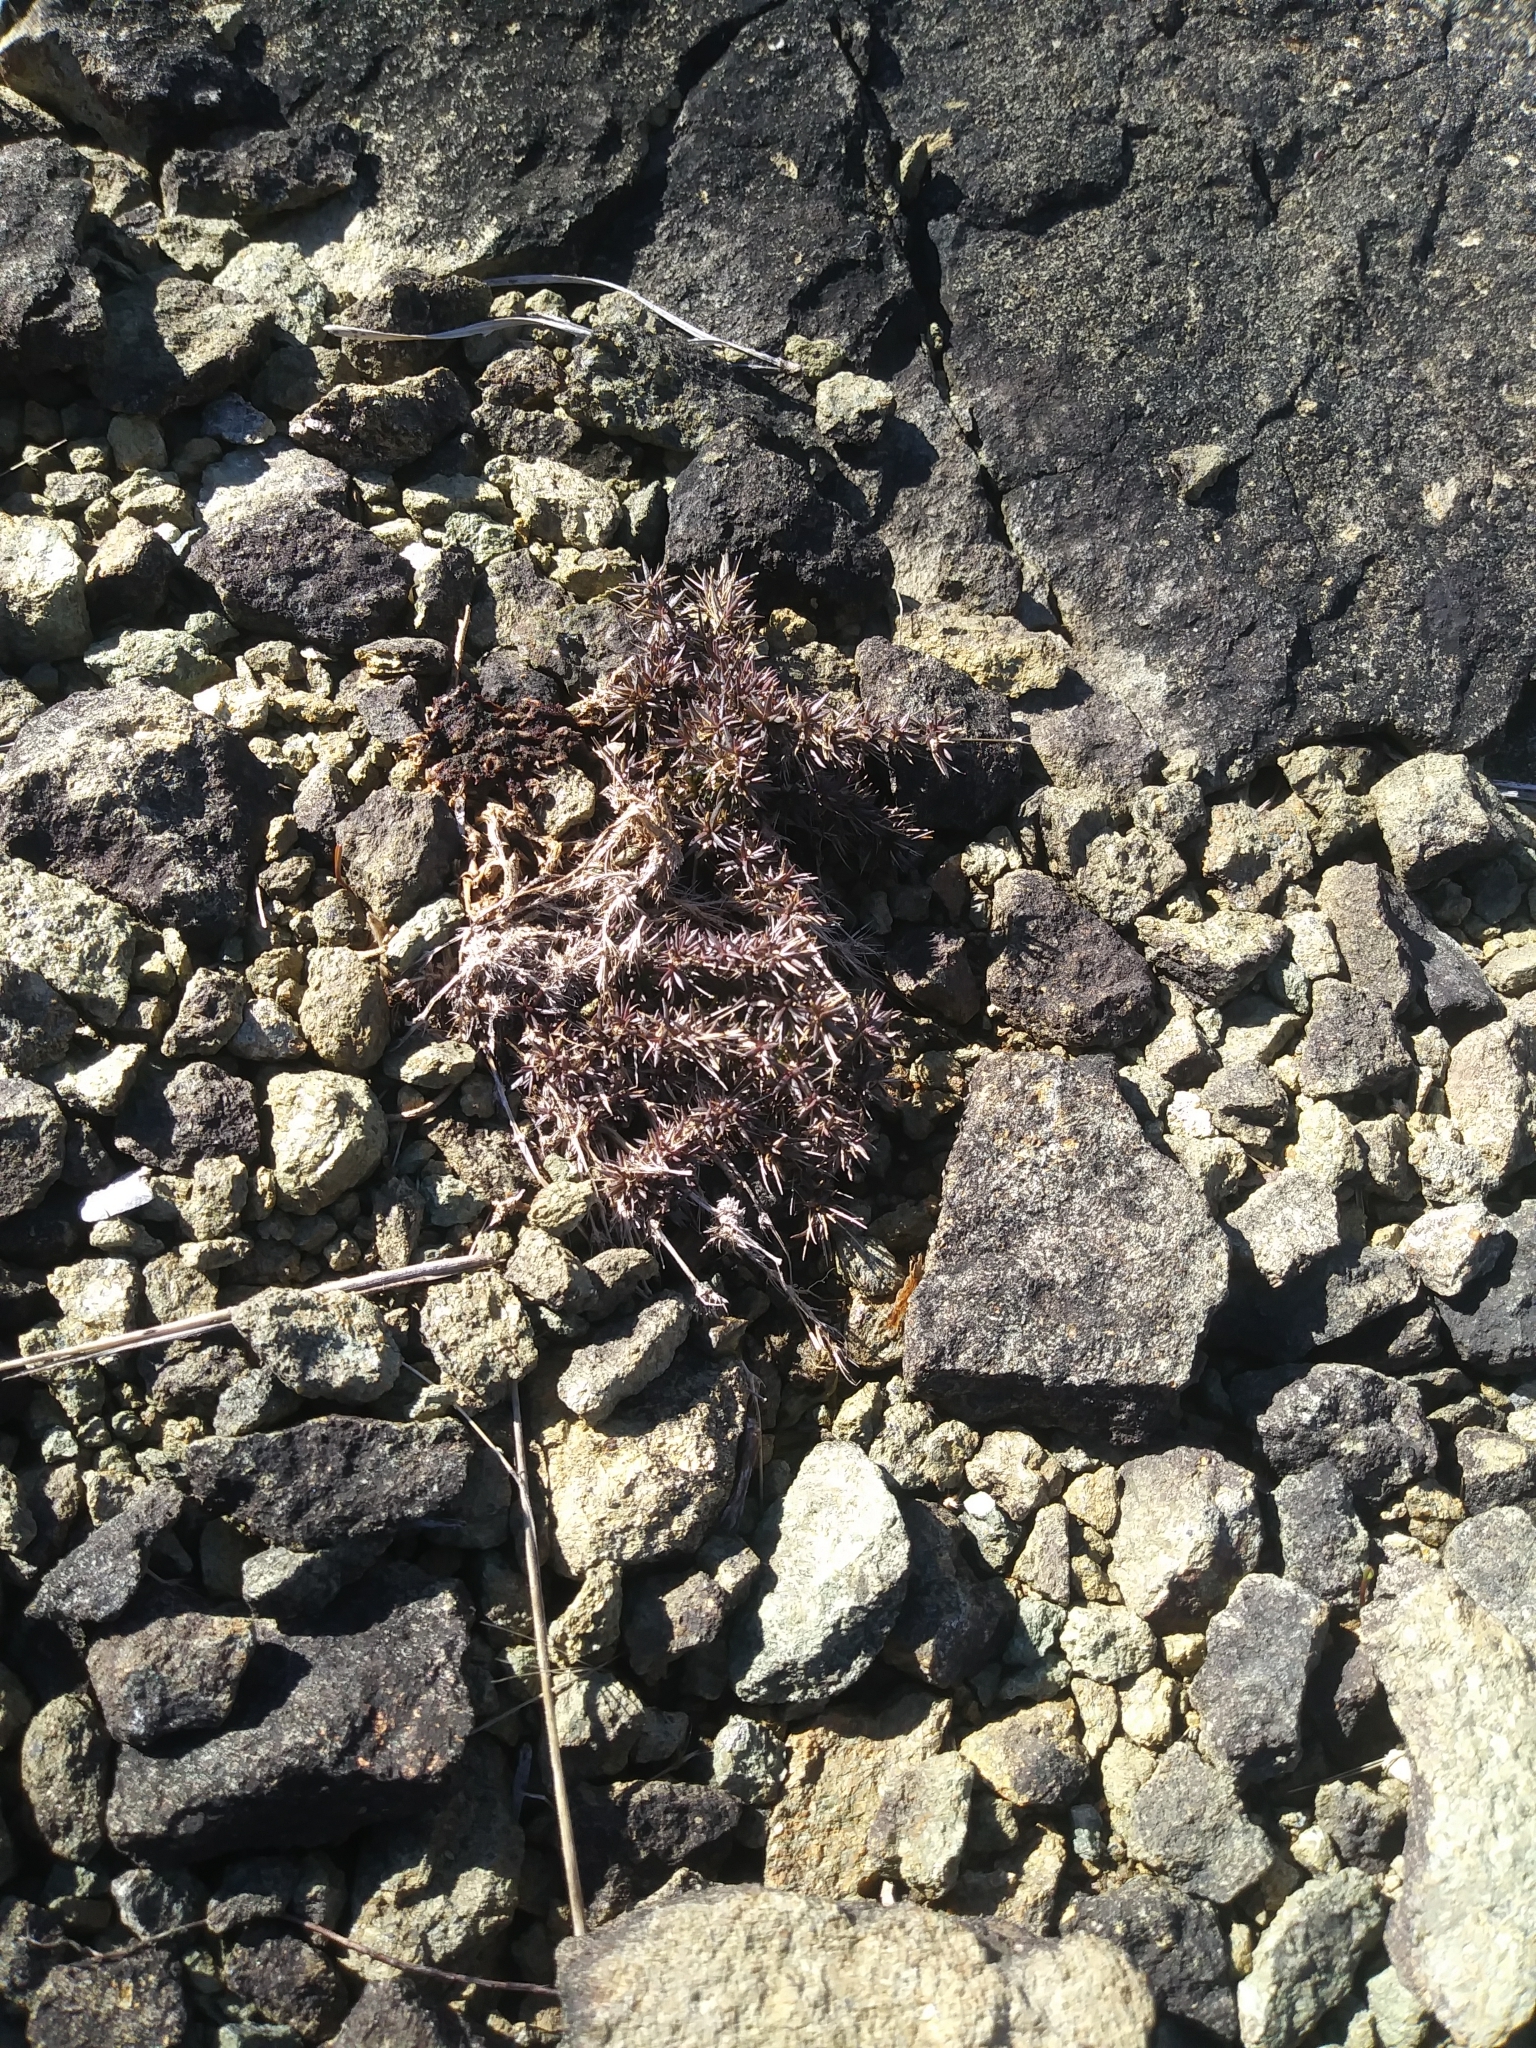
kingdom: Plantae
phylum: Tracheophyta
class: Magnoliopsida
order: Caryophyllales
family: Caryophyllaceae
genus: Sabulina
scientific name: Sabulina michauxii
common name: Michaux's stitchwort
